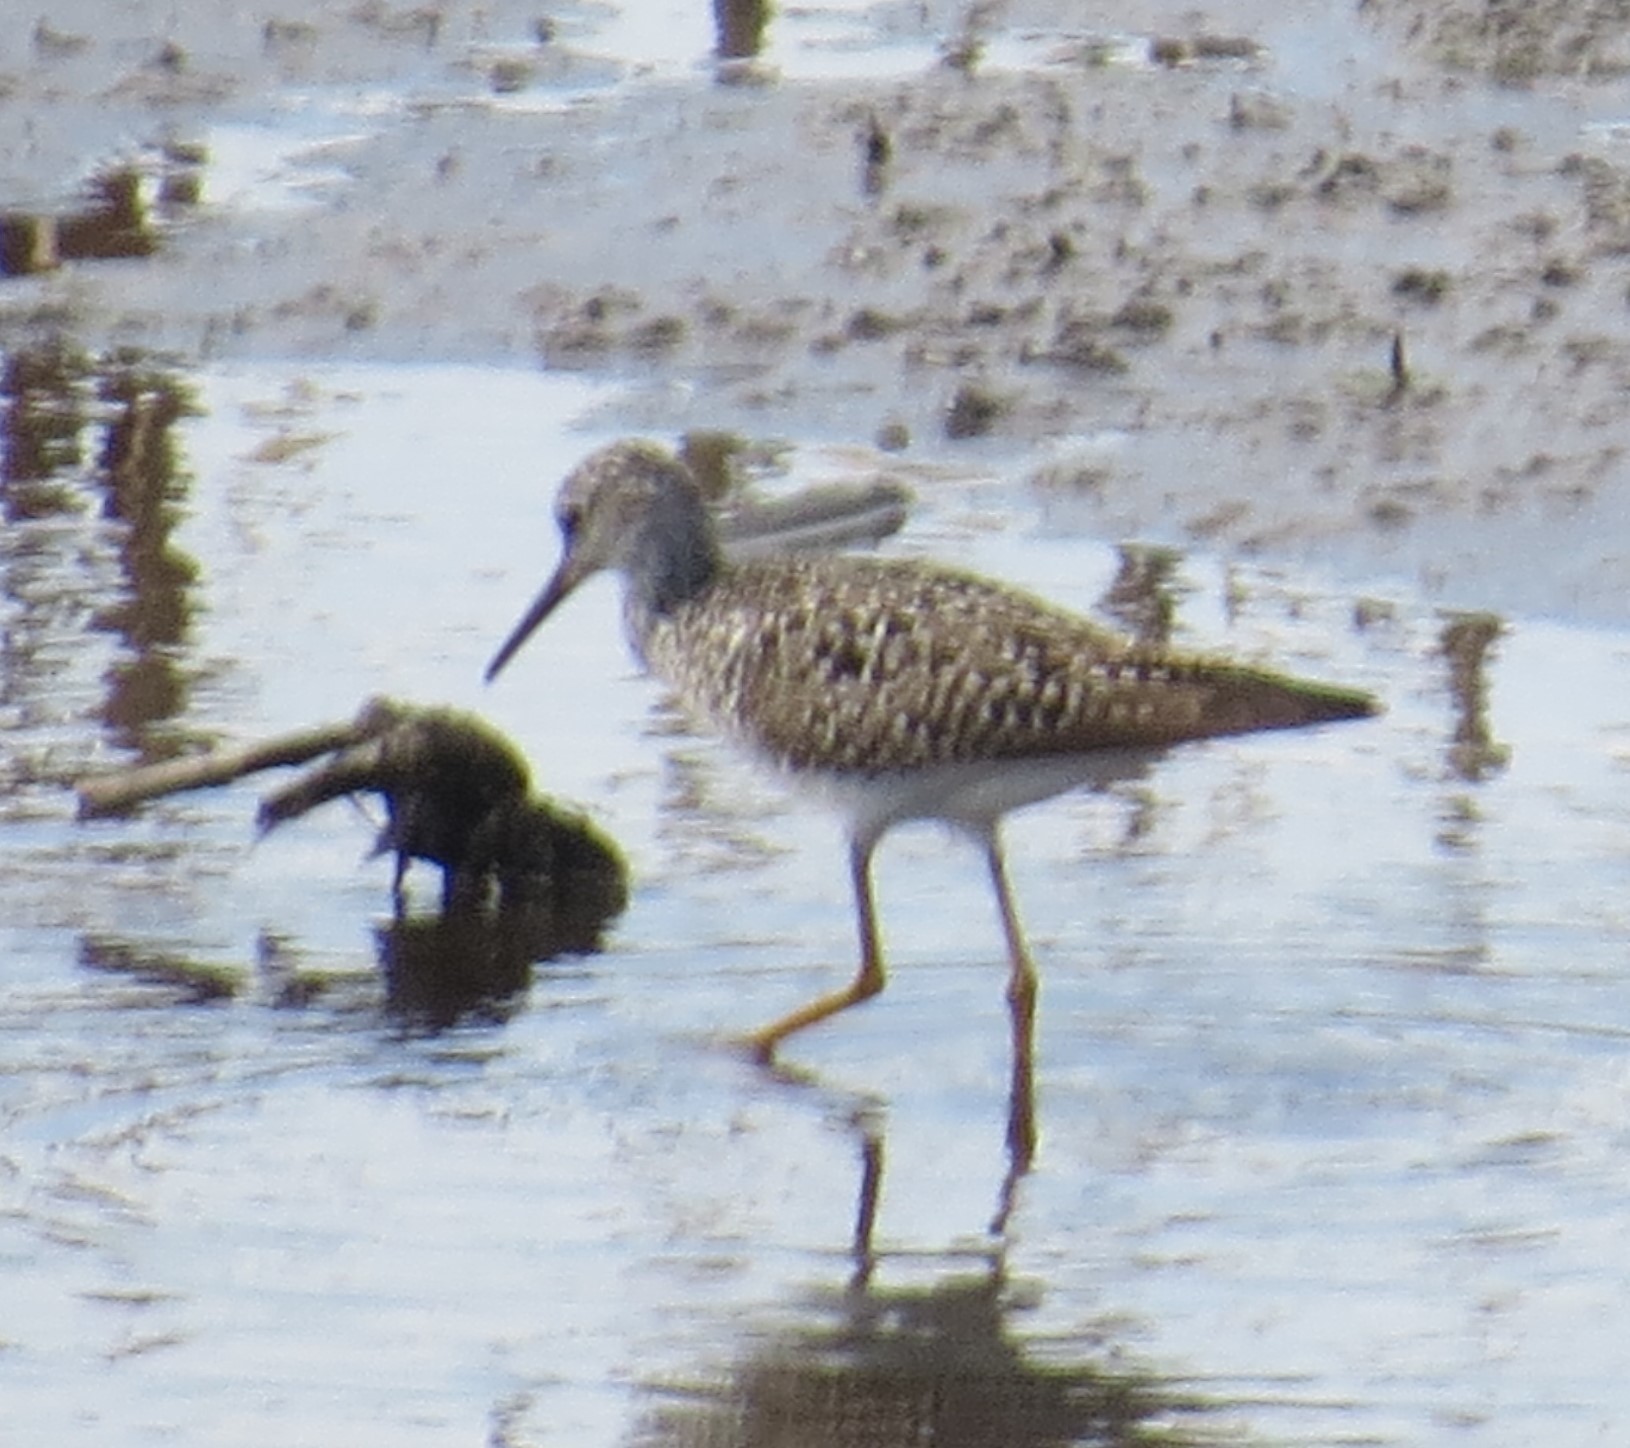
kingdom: Animalia
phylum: Chordata
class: Aves
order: Charadriiformes
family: Scolopacidae
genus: Tringa
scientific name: Tringa flavipes
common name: Lesser yellowlegs
